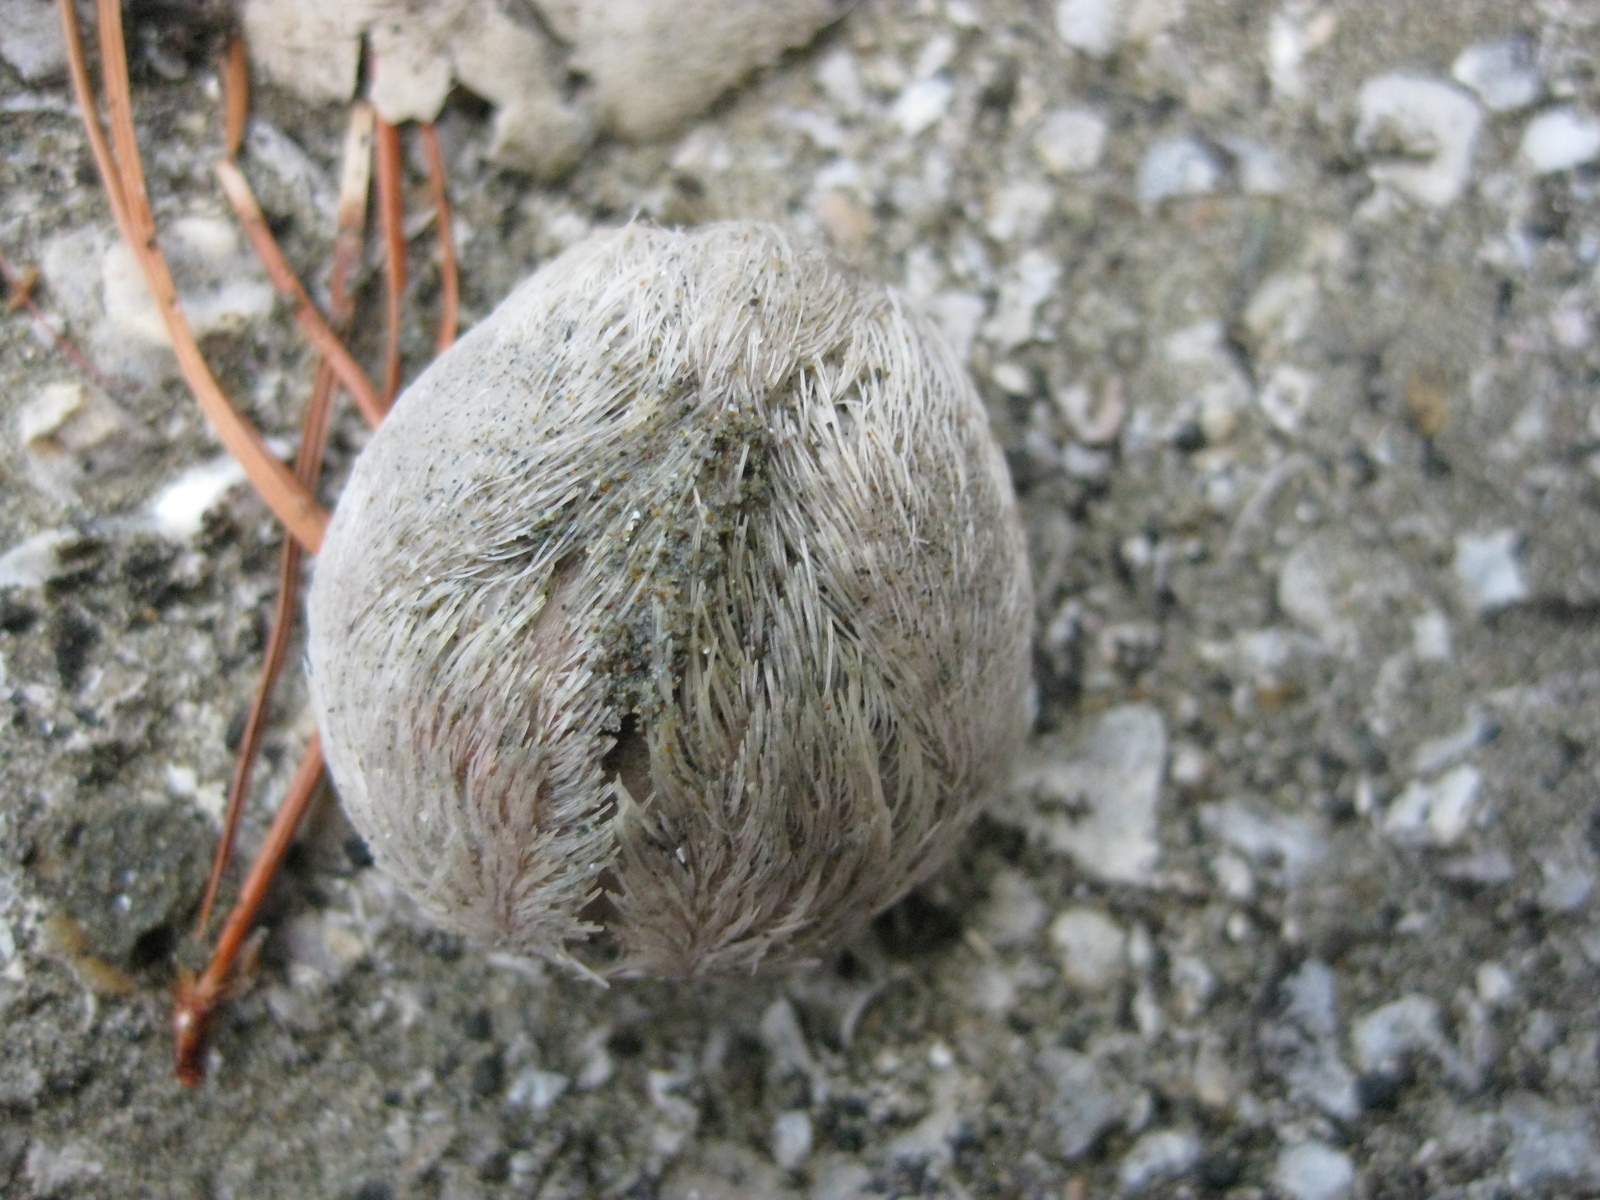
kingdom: Animalia
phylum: Echinodermata
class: Echinoidea
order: Spatangoida
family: Loveniidae
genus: Echinocardium
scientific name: Echinocardium cordatum
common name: Heart-urchin
